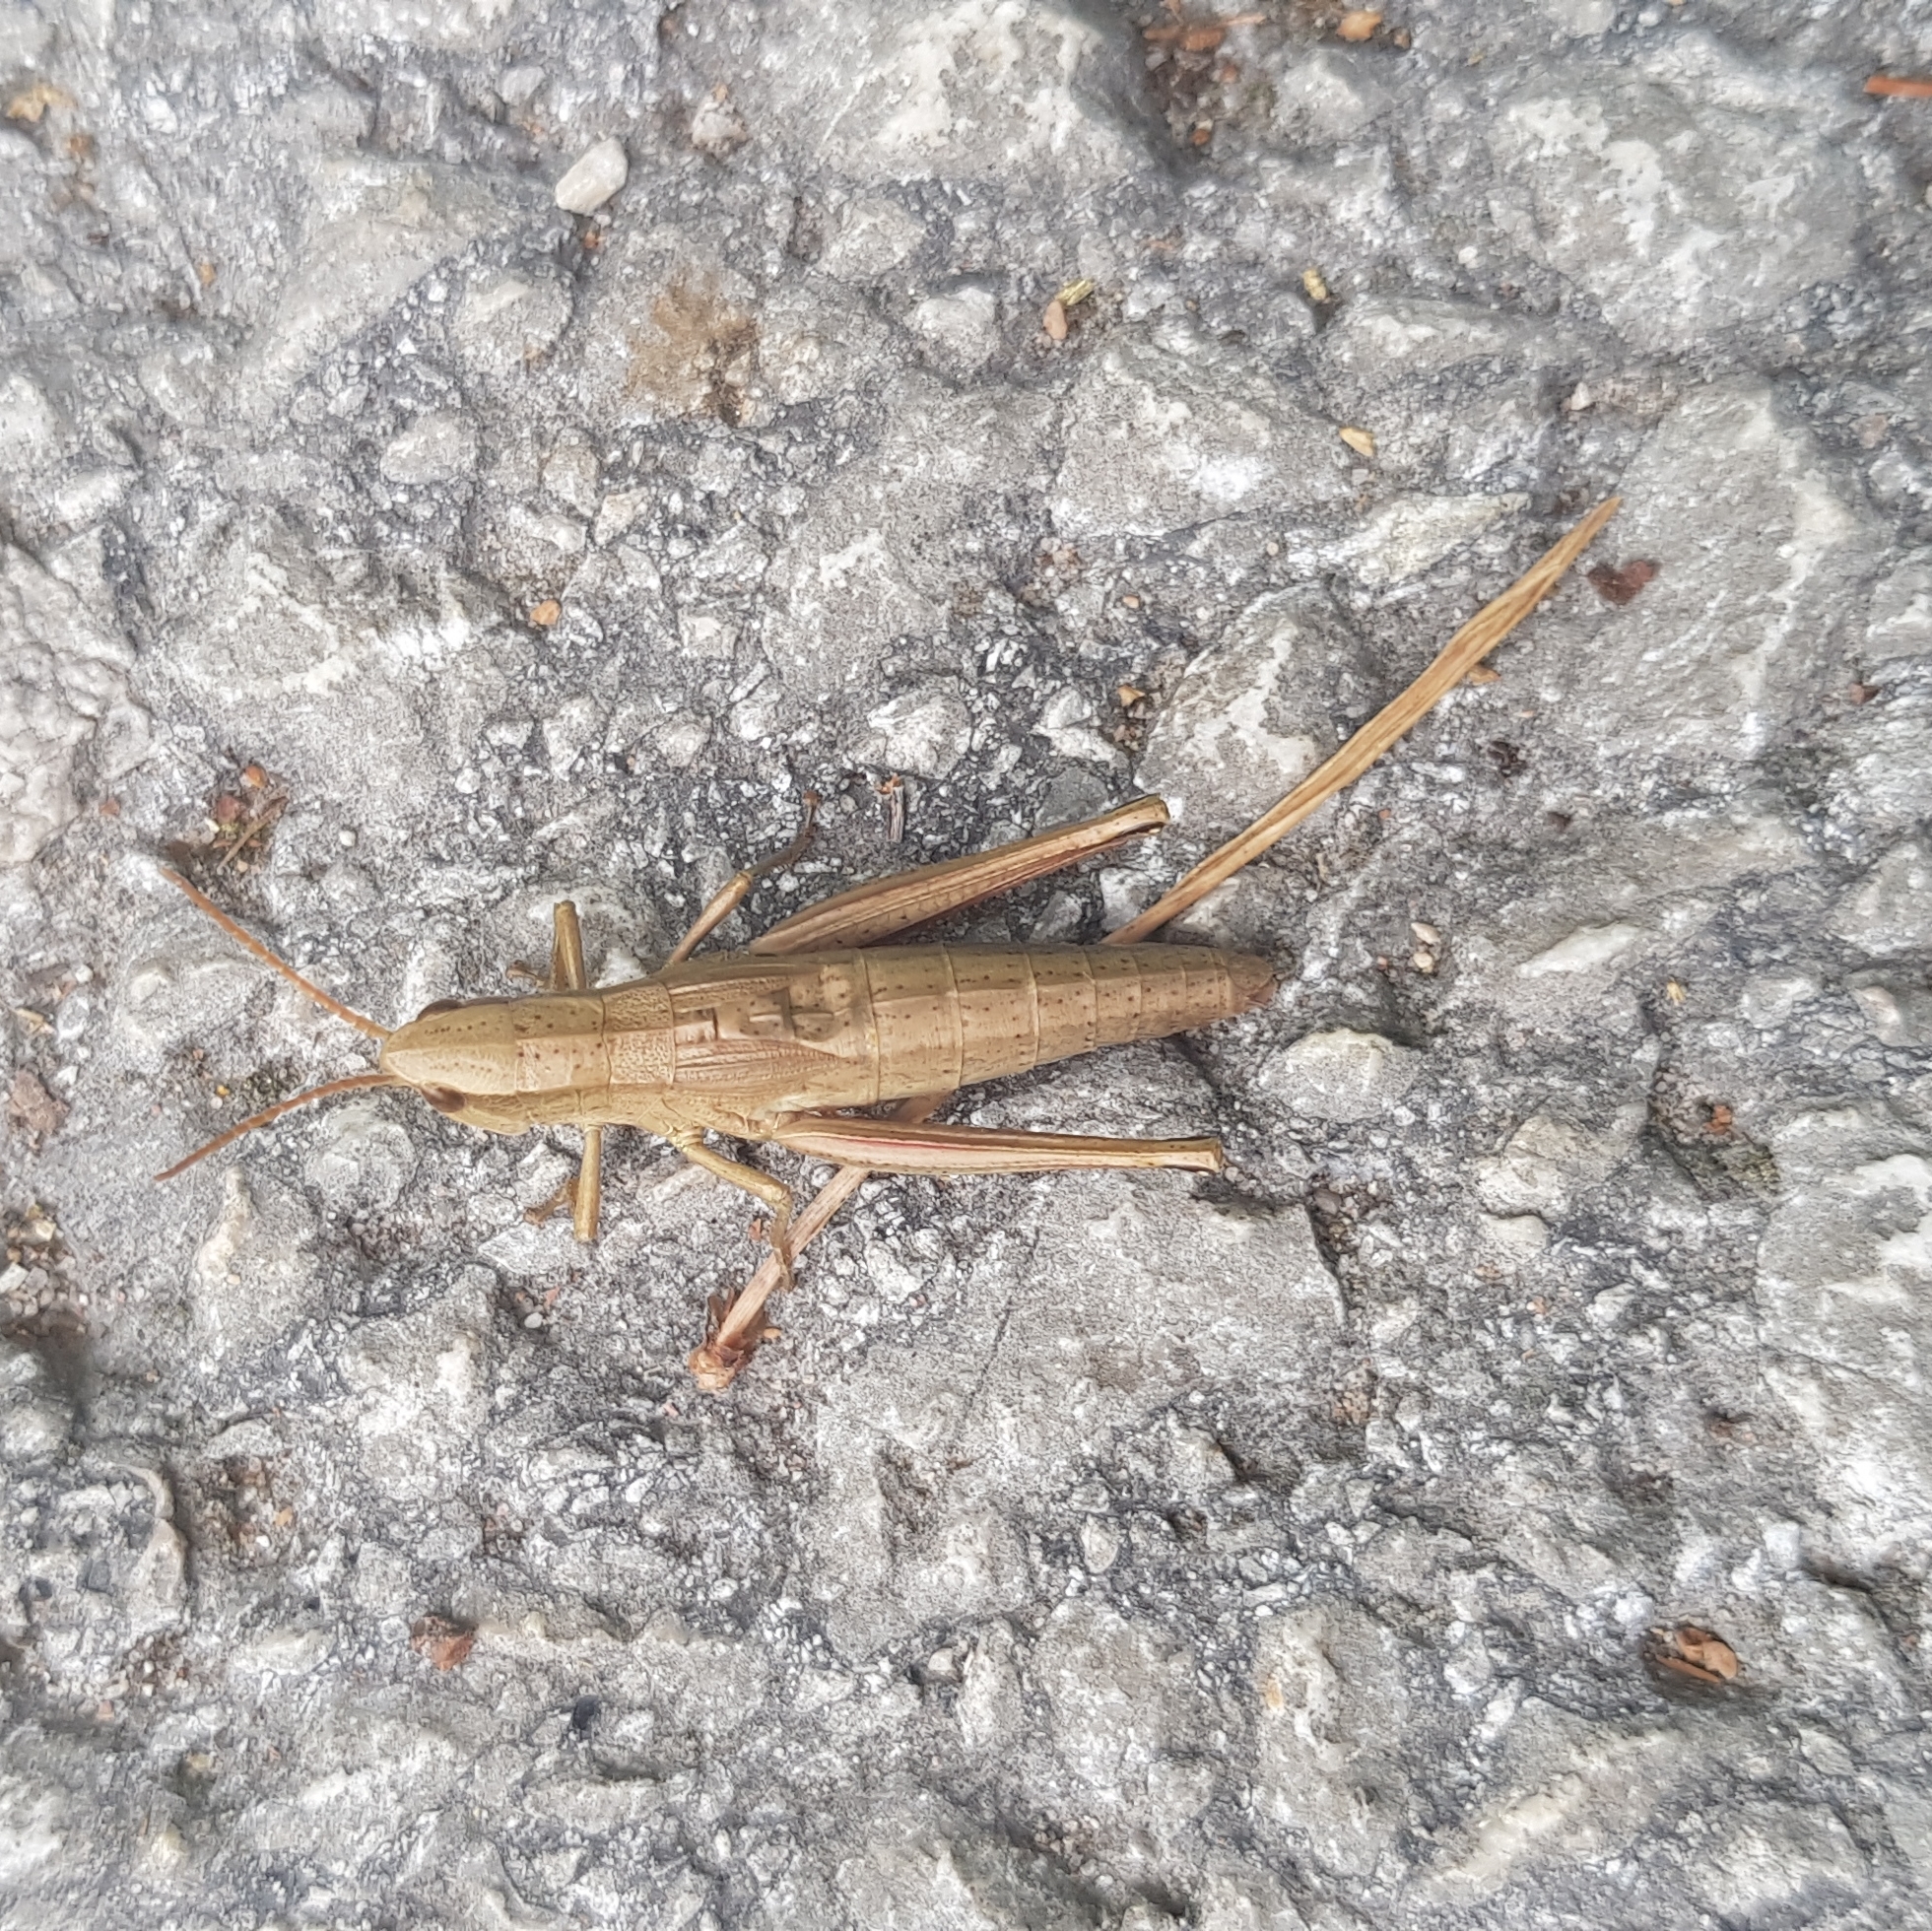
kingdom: Animalia
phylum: Arthropoda
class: Insecta
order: Orthoptera
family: Acrididae
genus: Chrysochraon
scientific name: Chrysochraon dispar
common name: Large gold grasshopper
